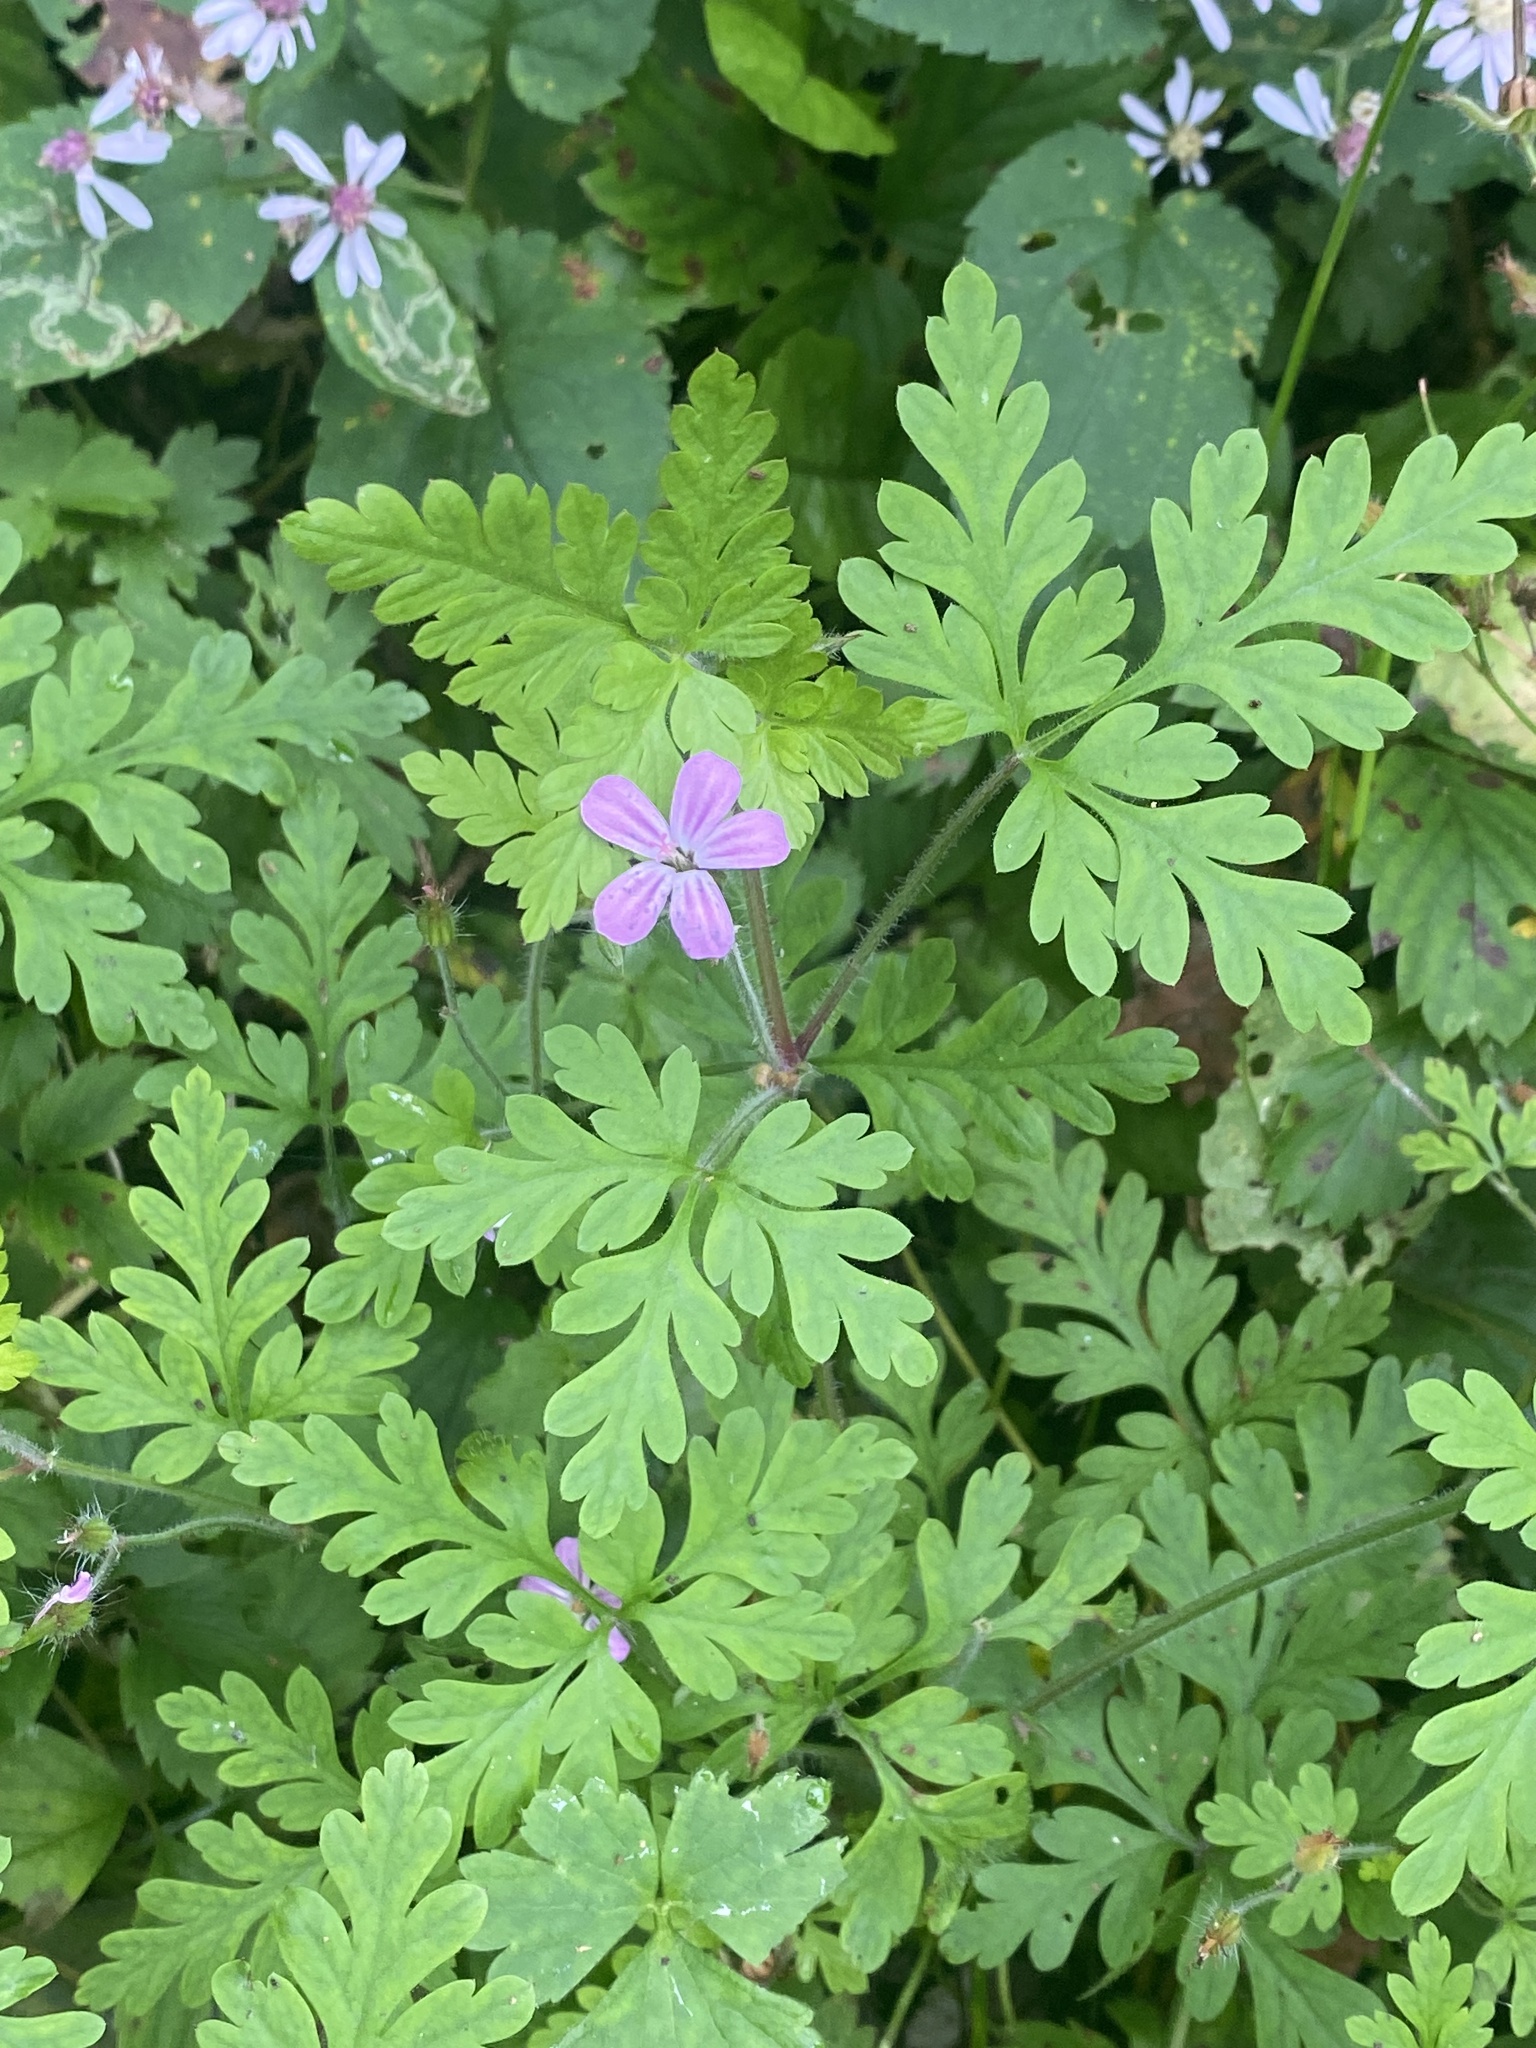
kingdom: Plantae
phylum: Tracheophyta
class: Magnoliopsida
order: Geraniales
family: Geraniaceae
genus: Geranium
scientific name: Geranium robertianum
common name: Herb-robert
